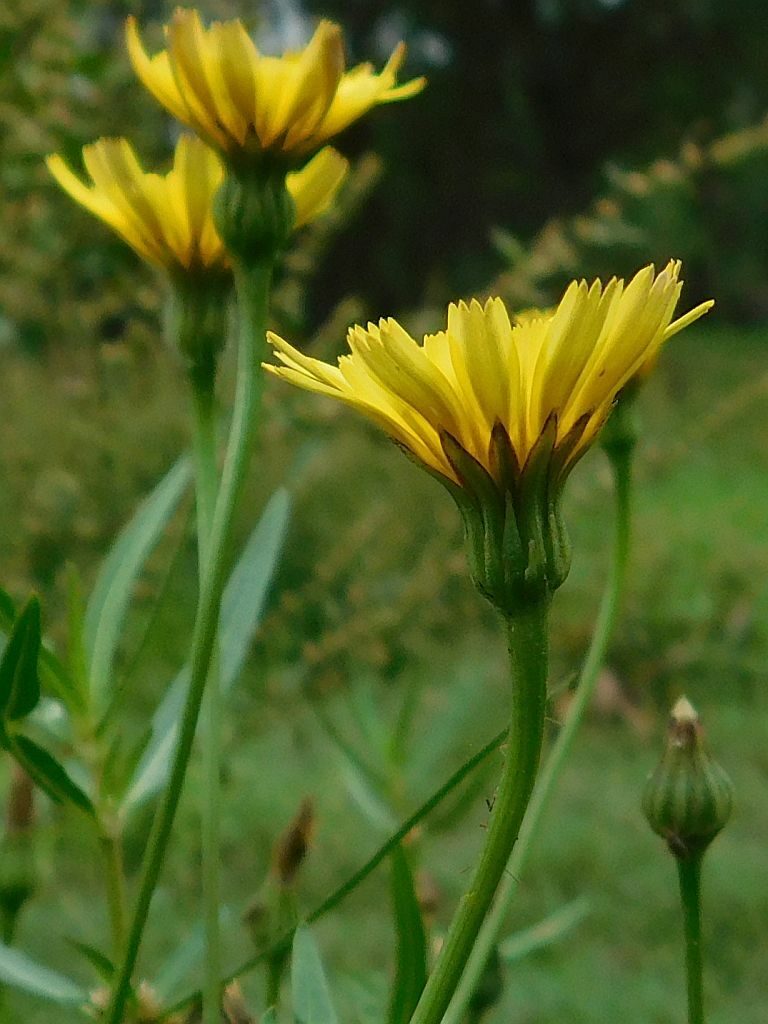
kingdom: Plantae
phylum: Tracheophyta
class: Magnoliopsida
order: Asterales
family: Asteraceae
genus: Hypochaeris
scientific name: Hypochaeris radicata
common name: Flatweed
